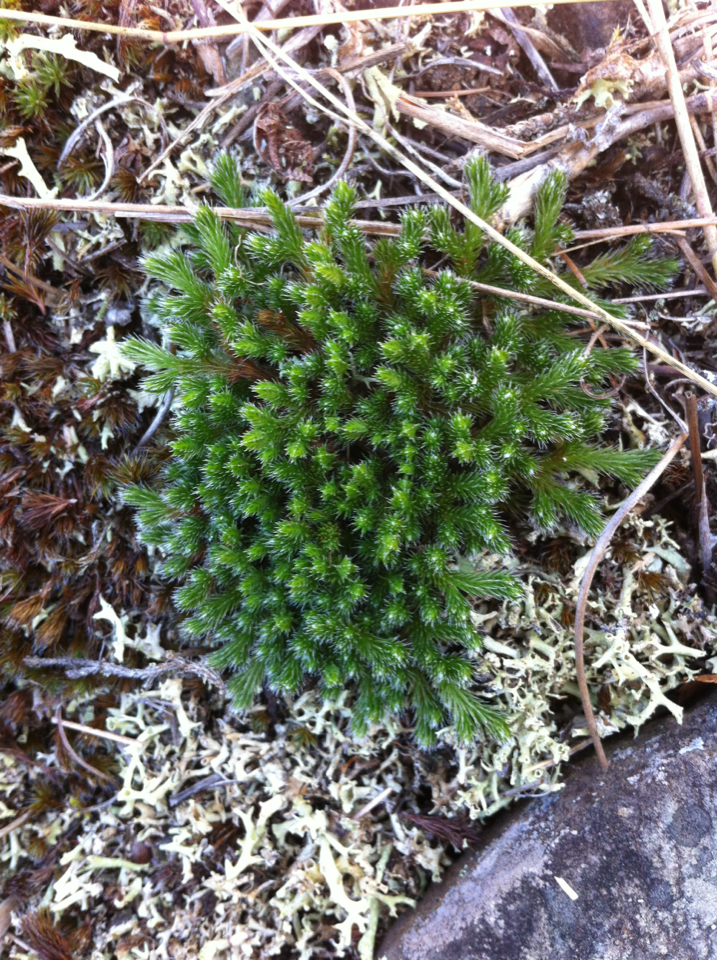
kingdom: Plantae
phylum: Tracheophyta
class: Lycopodiopsida
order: Selaginellales
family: Selaginellaceae
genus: Selaginella
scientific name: Selaginella rupestris
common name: Dwarf spikemoss
